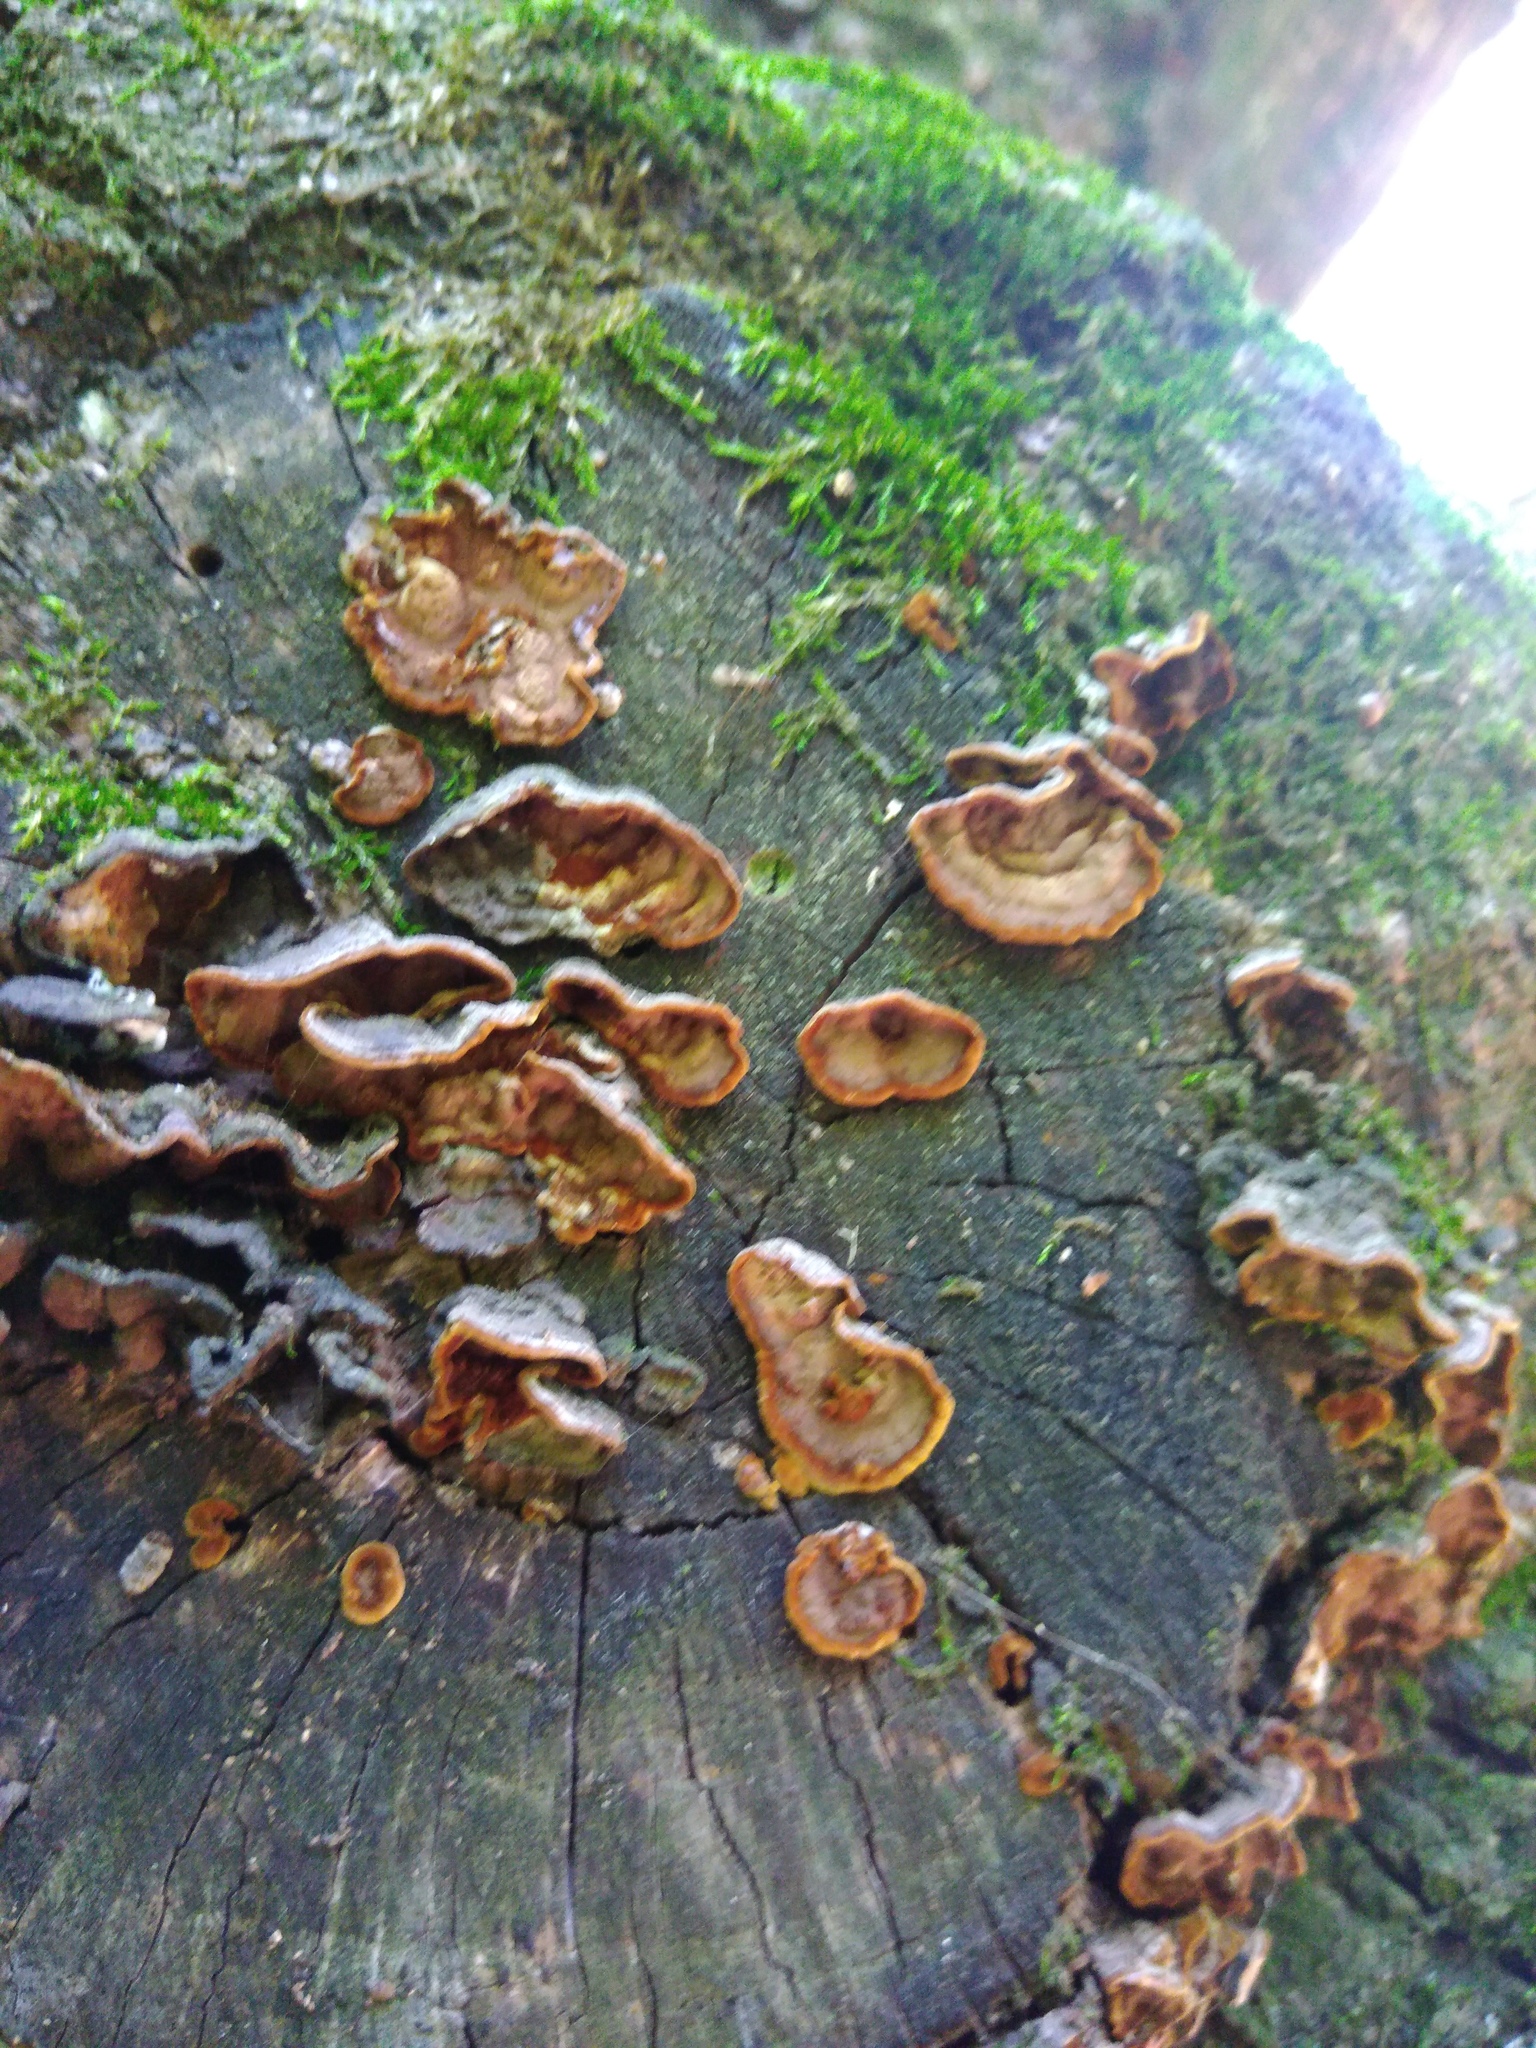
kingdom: Fungi
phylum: Basidiomycota
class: Agaricomycetes
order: Hymenochaetales
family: Hymenochaetaceae
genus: Hymenochaete
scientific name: Hymenochaete rubiginosa
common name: Oak curtain crust
